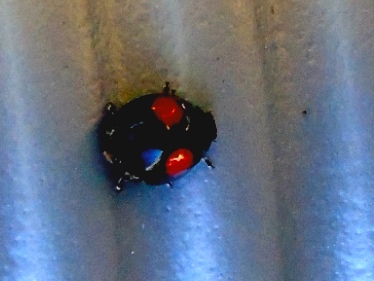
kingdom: Animalia
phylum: Arthropoda
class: Insecta
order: Coleoptera
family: Coccinellidae
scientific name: Coccinellidae
